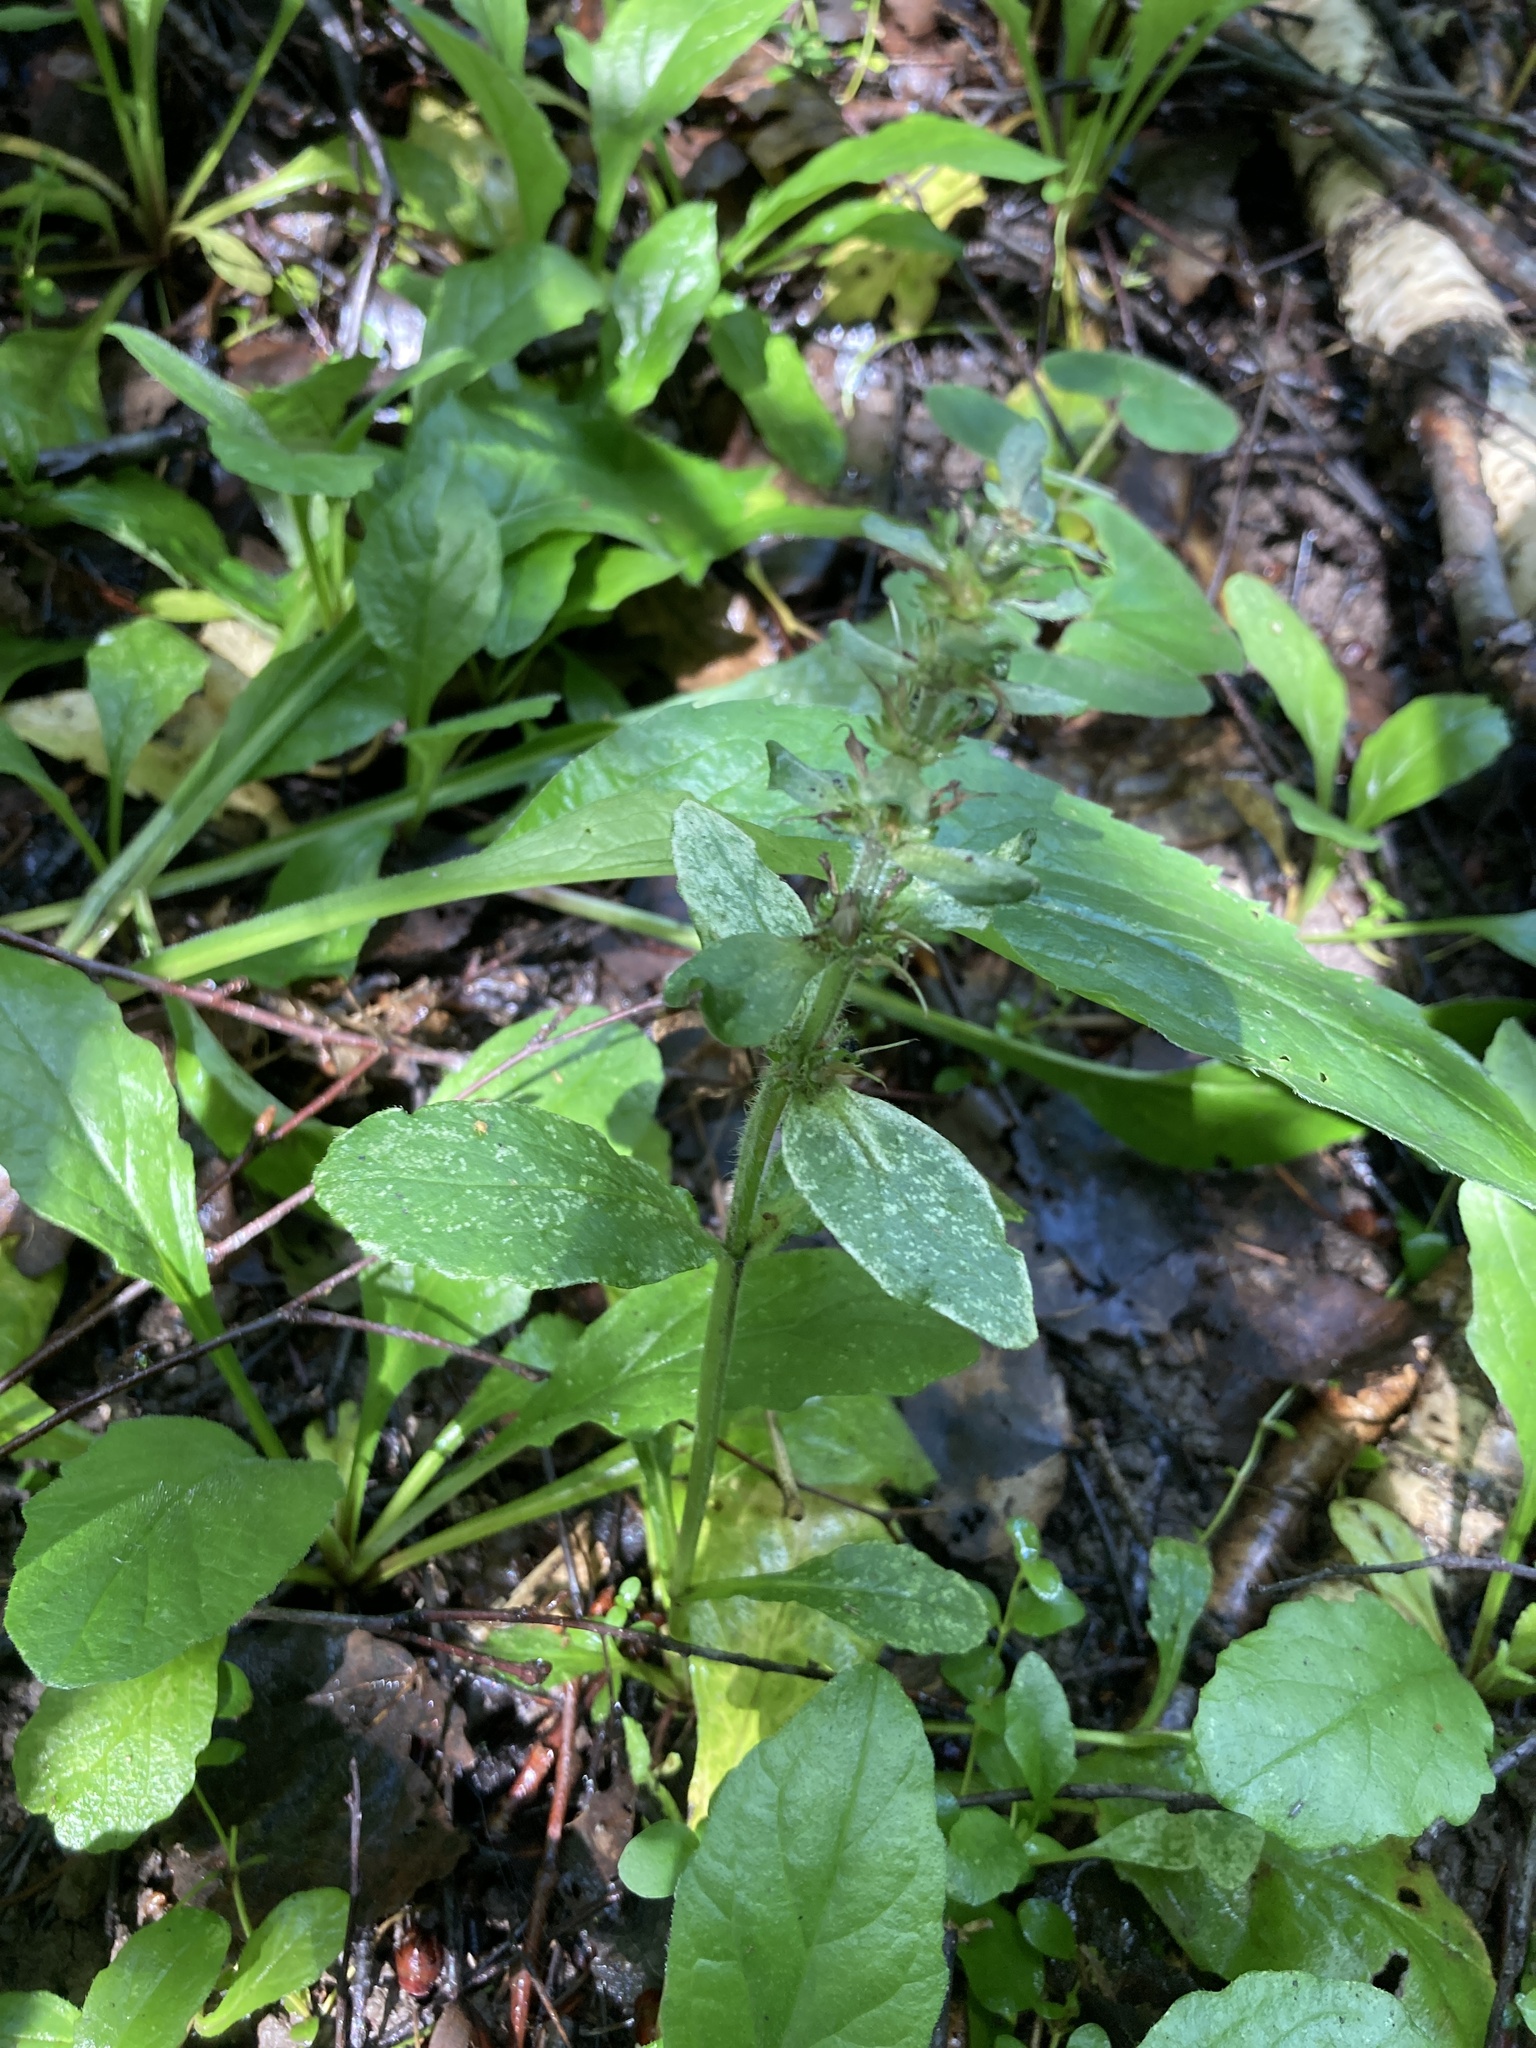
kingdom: Plantae
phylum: Tracheophyta
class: Magnoliopsida
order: Lamiales
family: Lamiaceae
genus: Ajuga
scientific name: Ajuga reptans
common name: Bugle
